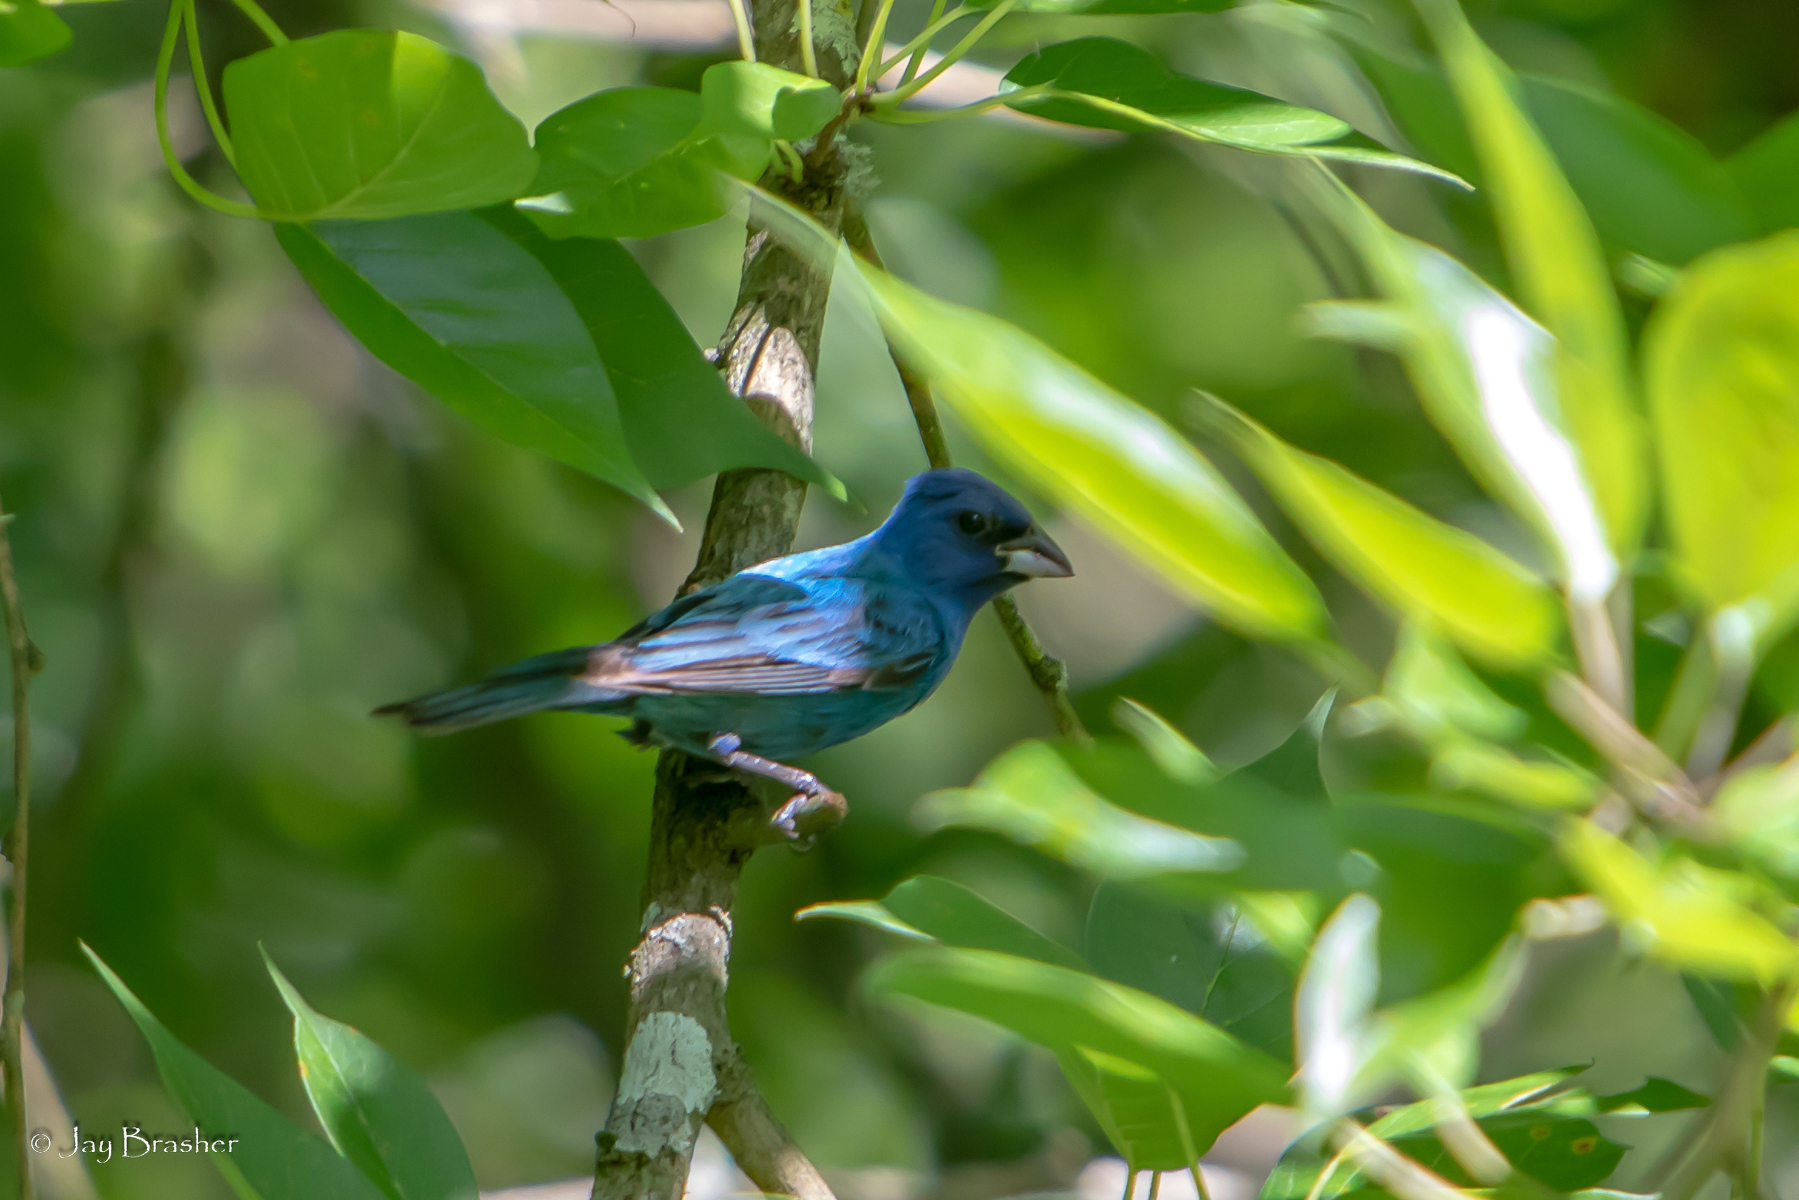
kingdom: Animalia
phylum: Chordata
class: Aves
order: Passeriformes
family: Cardinalidae
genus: Passerina
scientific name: Passerina cyanea
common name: Indigo bunting
